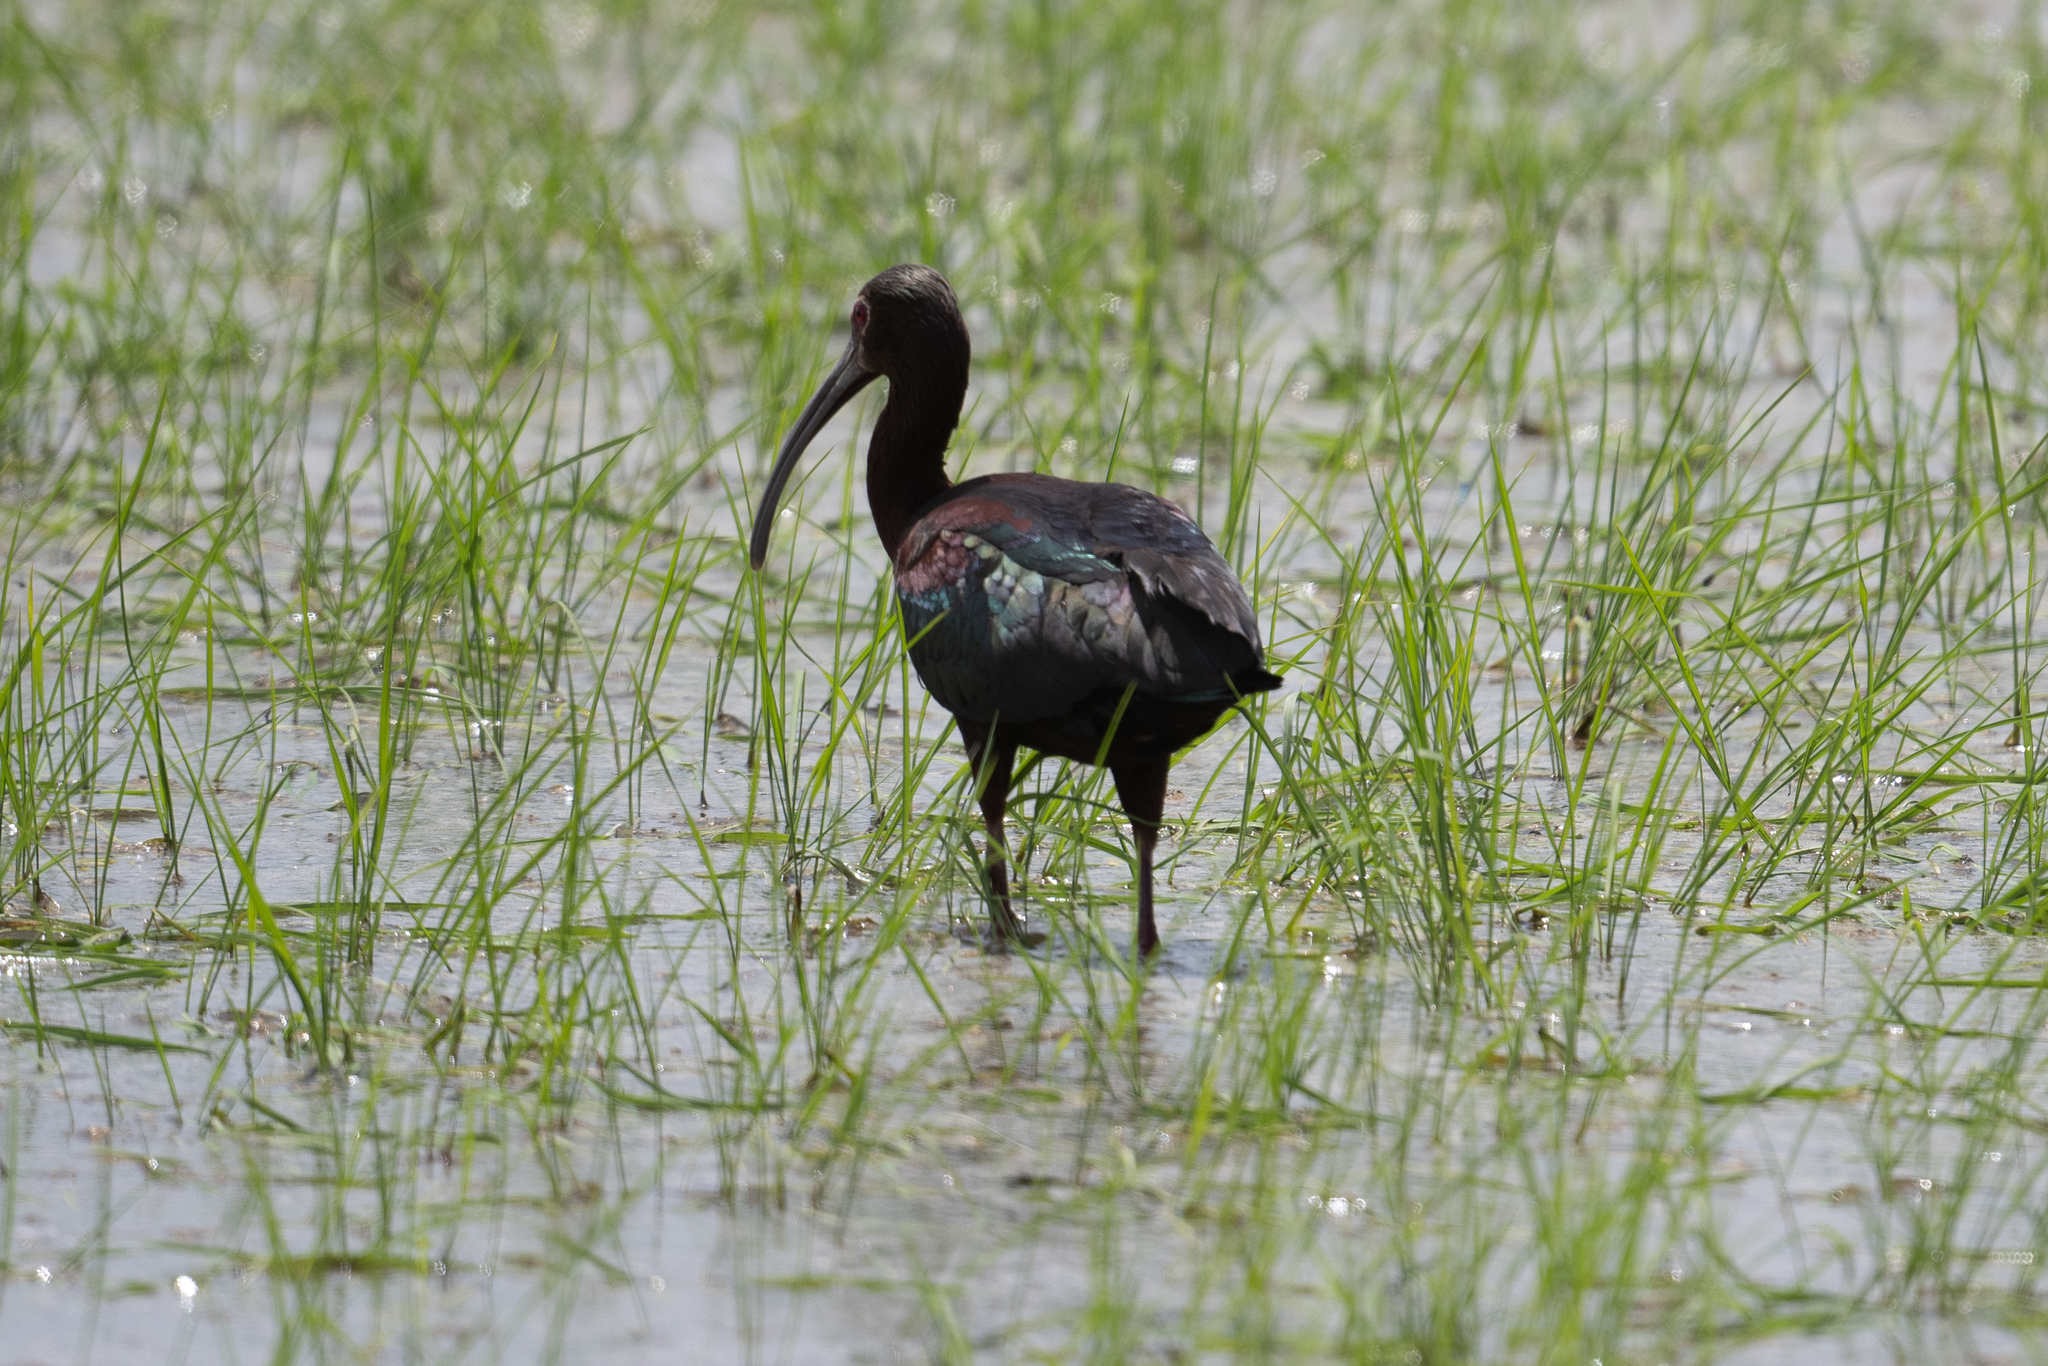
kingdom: Animalia
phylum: Chordata
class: Aves
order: Pelecaniformes
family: Threskiornithidae
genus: Plegadis
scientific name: Plegadis chihi
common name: White-faced ibis
